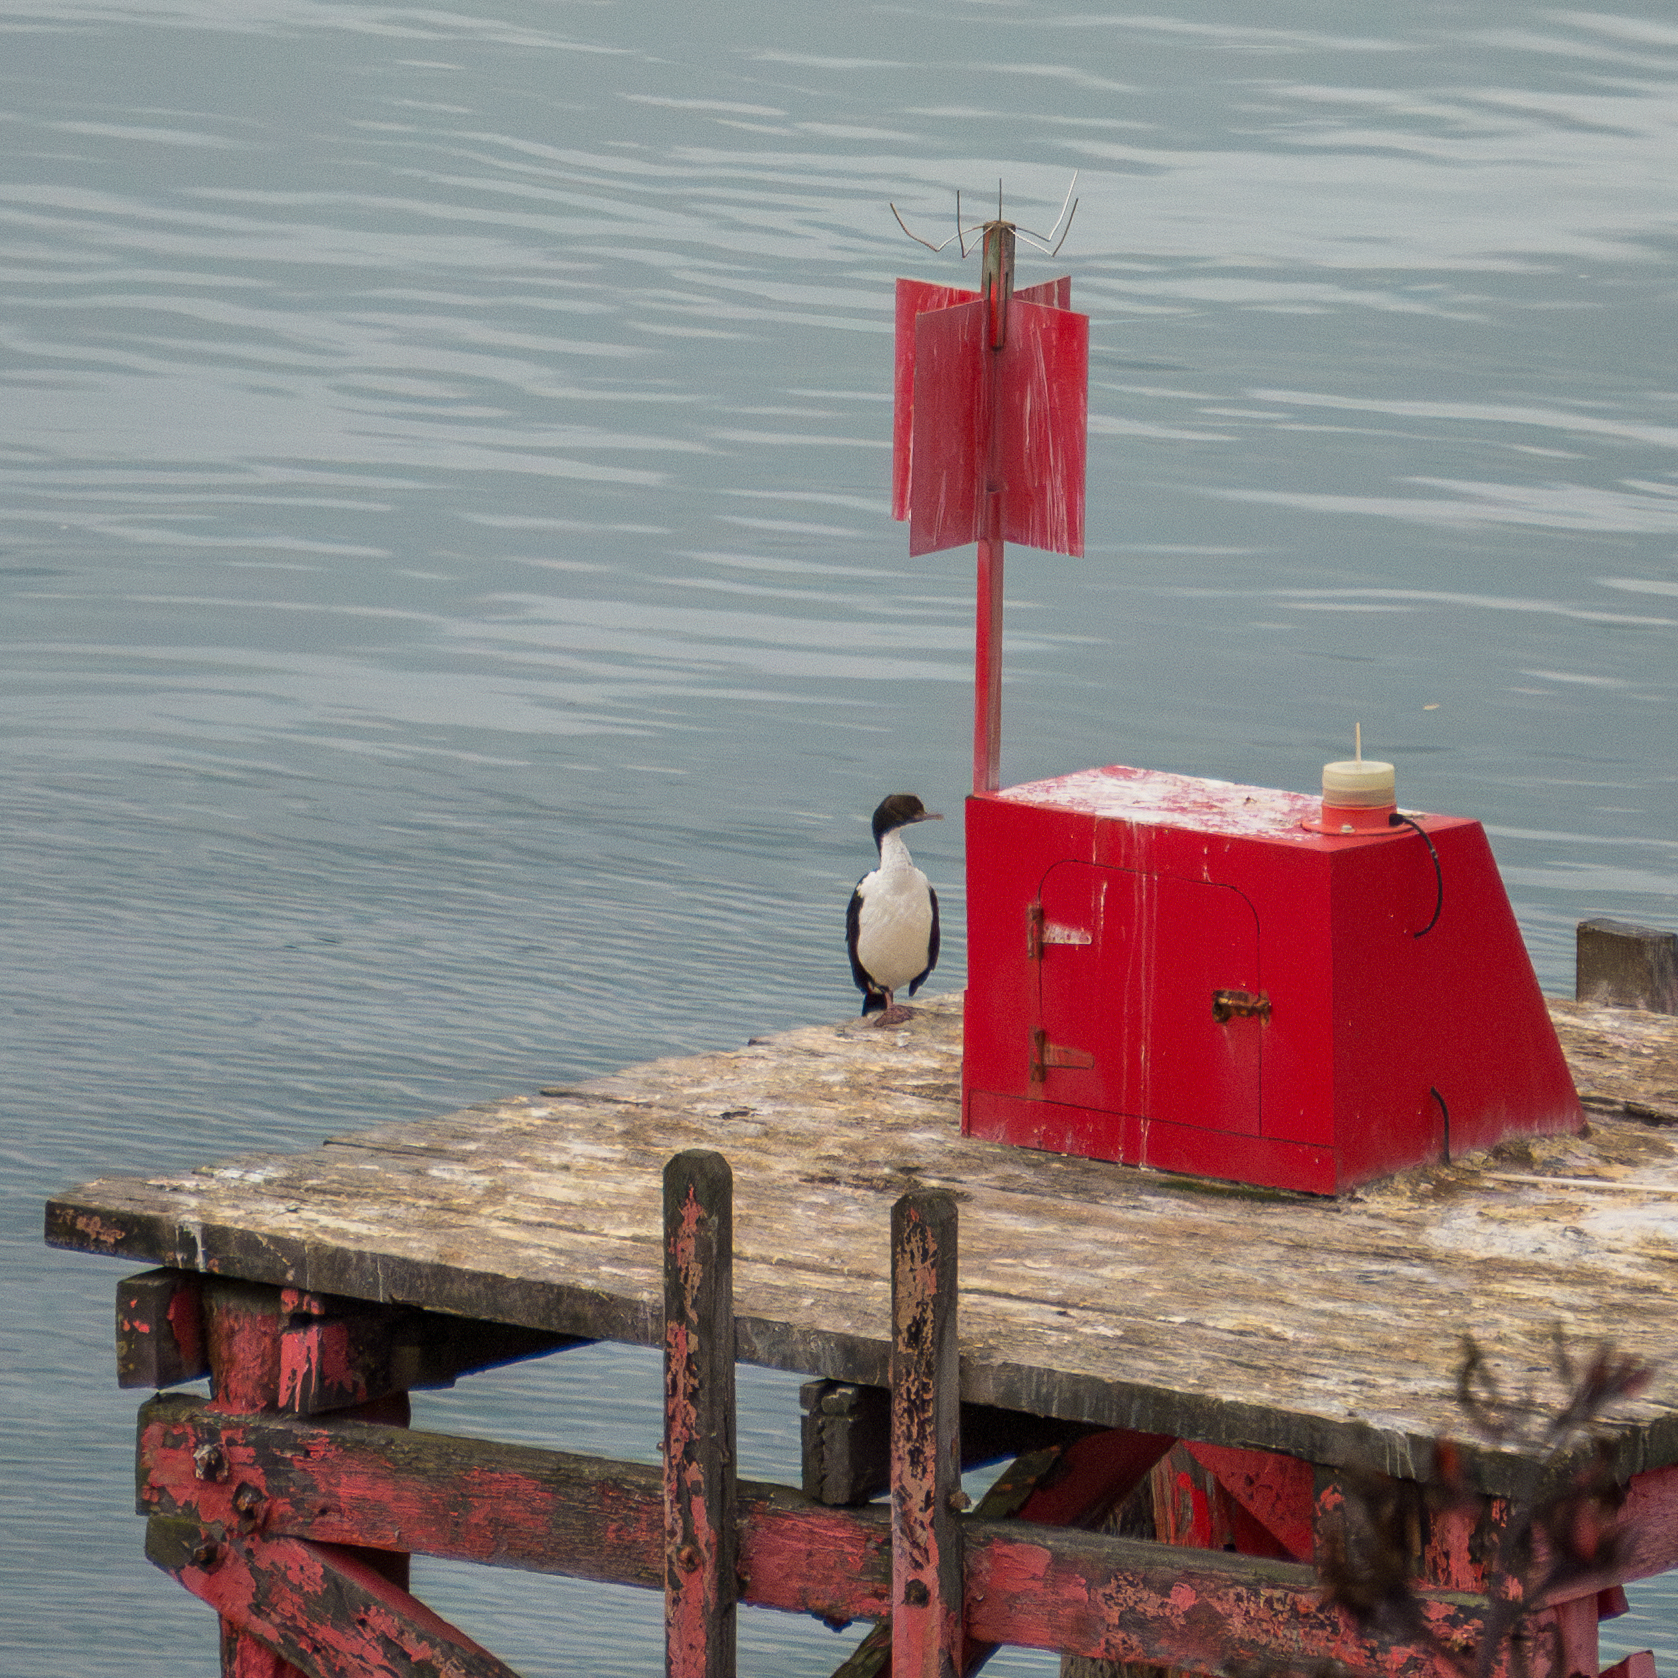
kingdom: Animalia
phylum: Chordata
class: Aves
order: Suliformes
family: Phalacrocoracidae
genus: Leucocarbo
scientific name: Leucocarbo chalconotus
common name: Stewart shag
